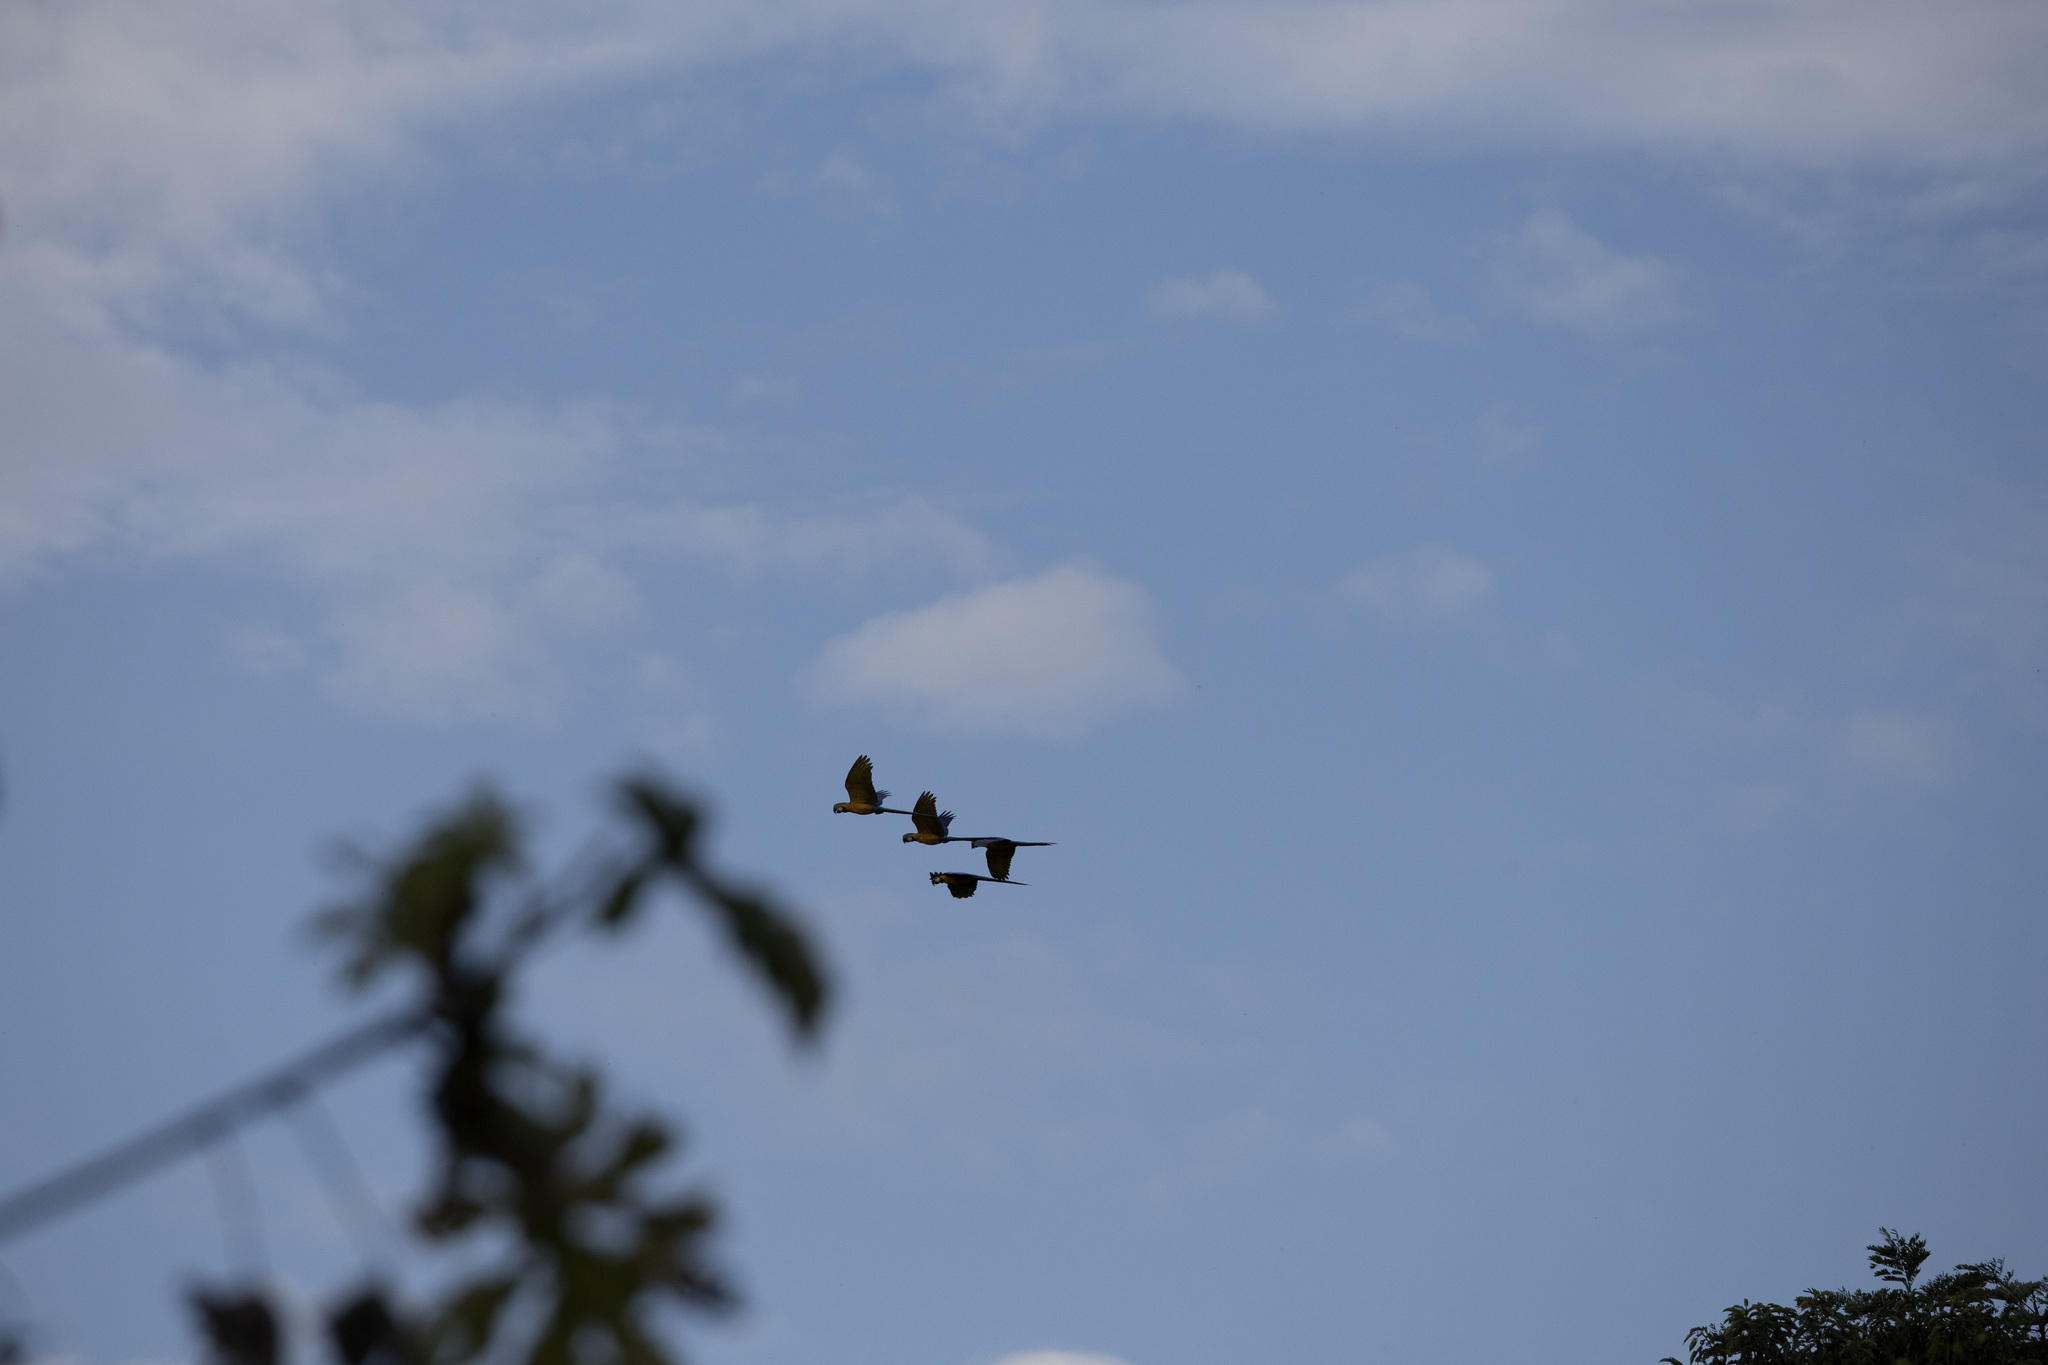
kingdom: Animalia
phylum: Chordata
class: Aves
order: Psittaciformes
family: Psittacidae
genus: Ara
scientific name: Ara ararauna
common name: Blue-and-yellow macaw
